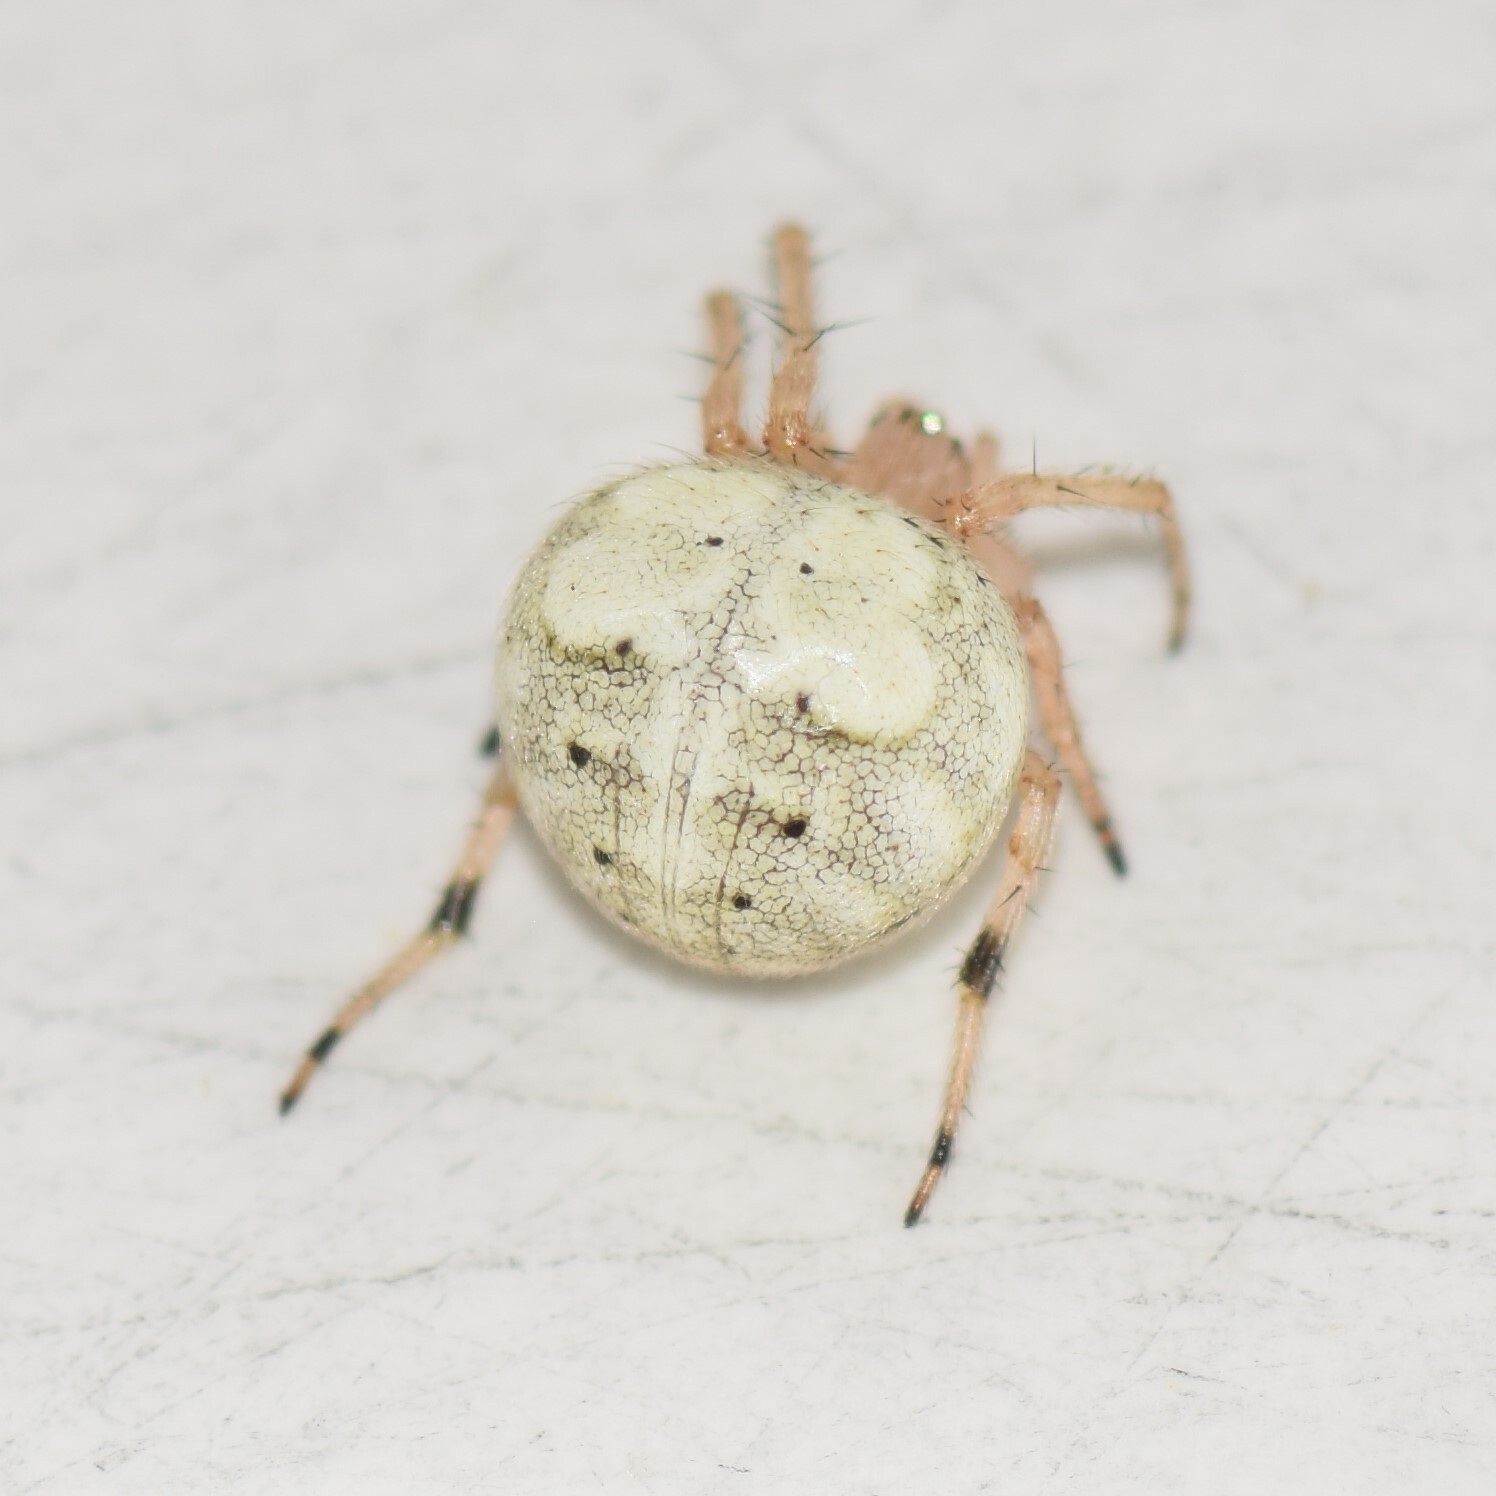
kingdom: Animalia
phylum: Arthropoda
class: Arachnida
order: Araneae
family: Araneidae
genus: Araneus
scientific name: Araneus pegnia
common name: Orb weavers
